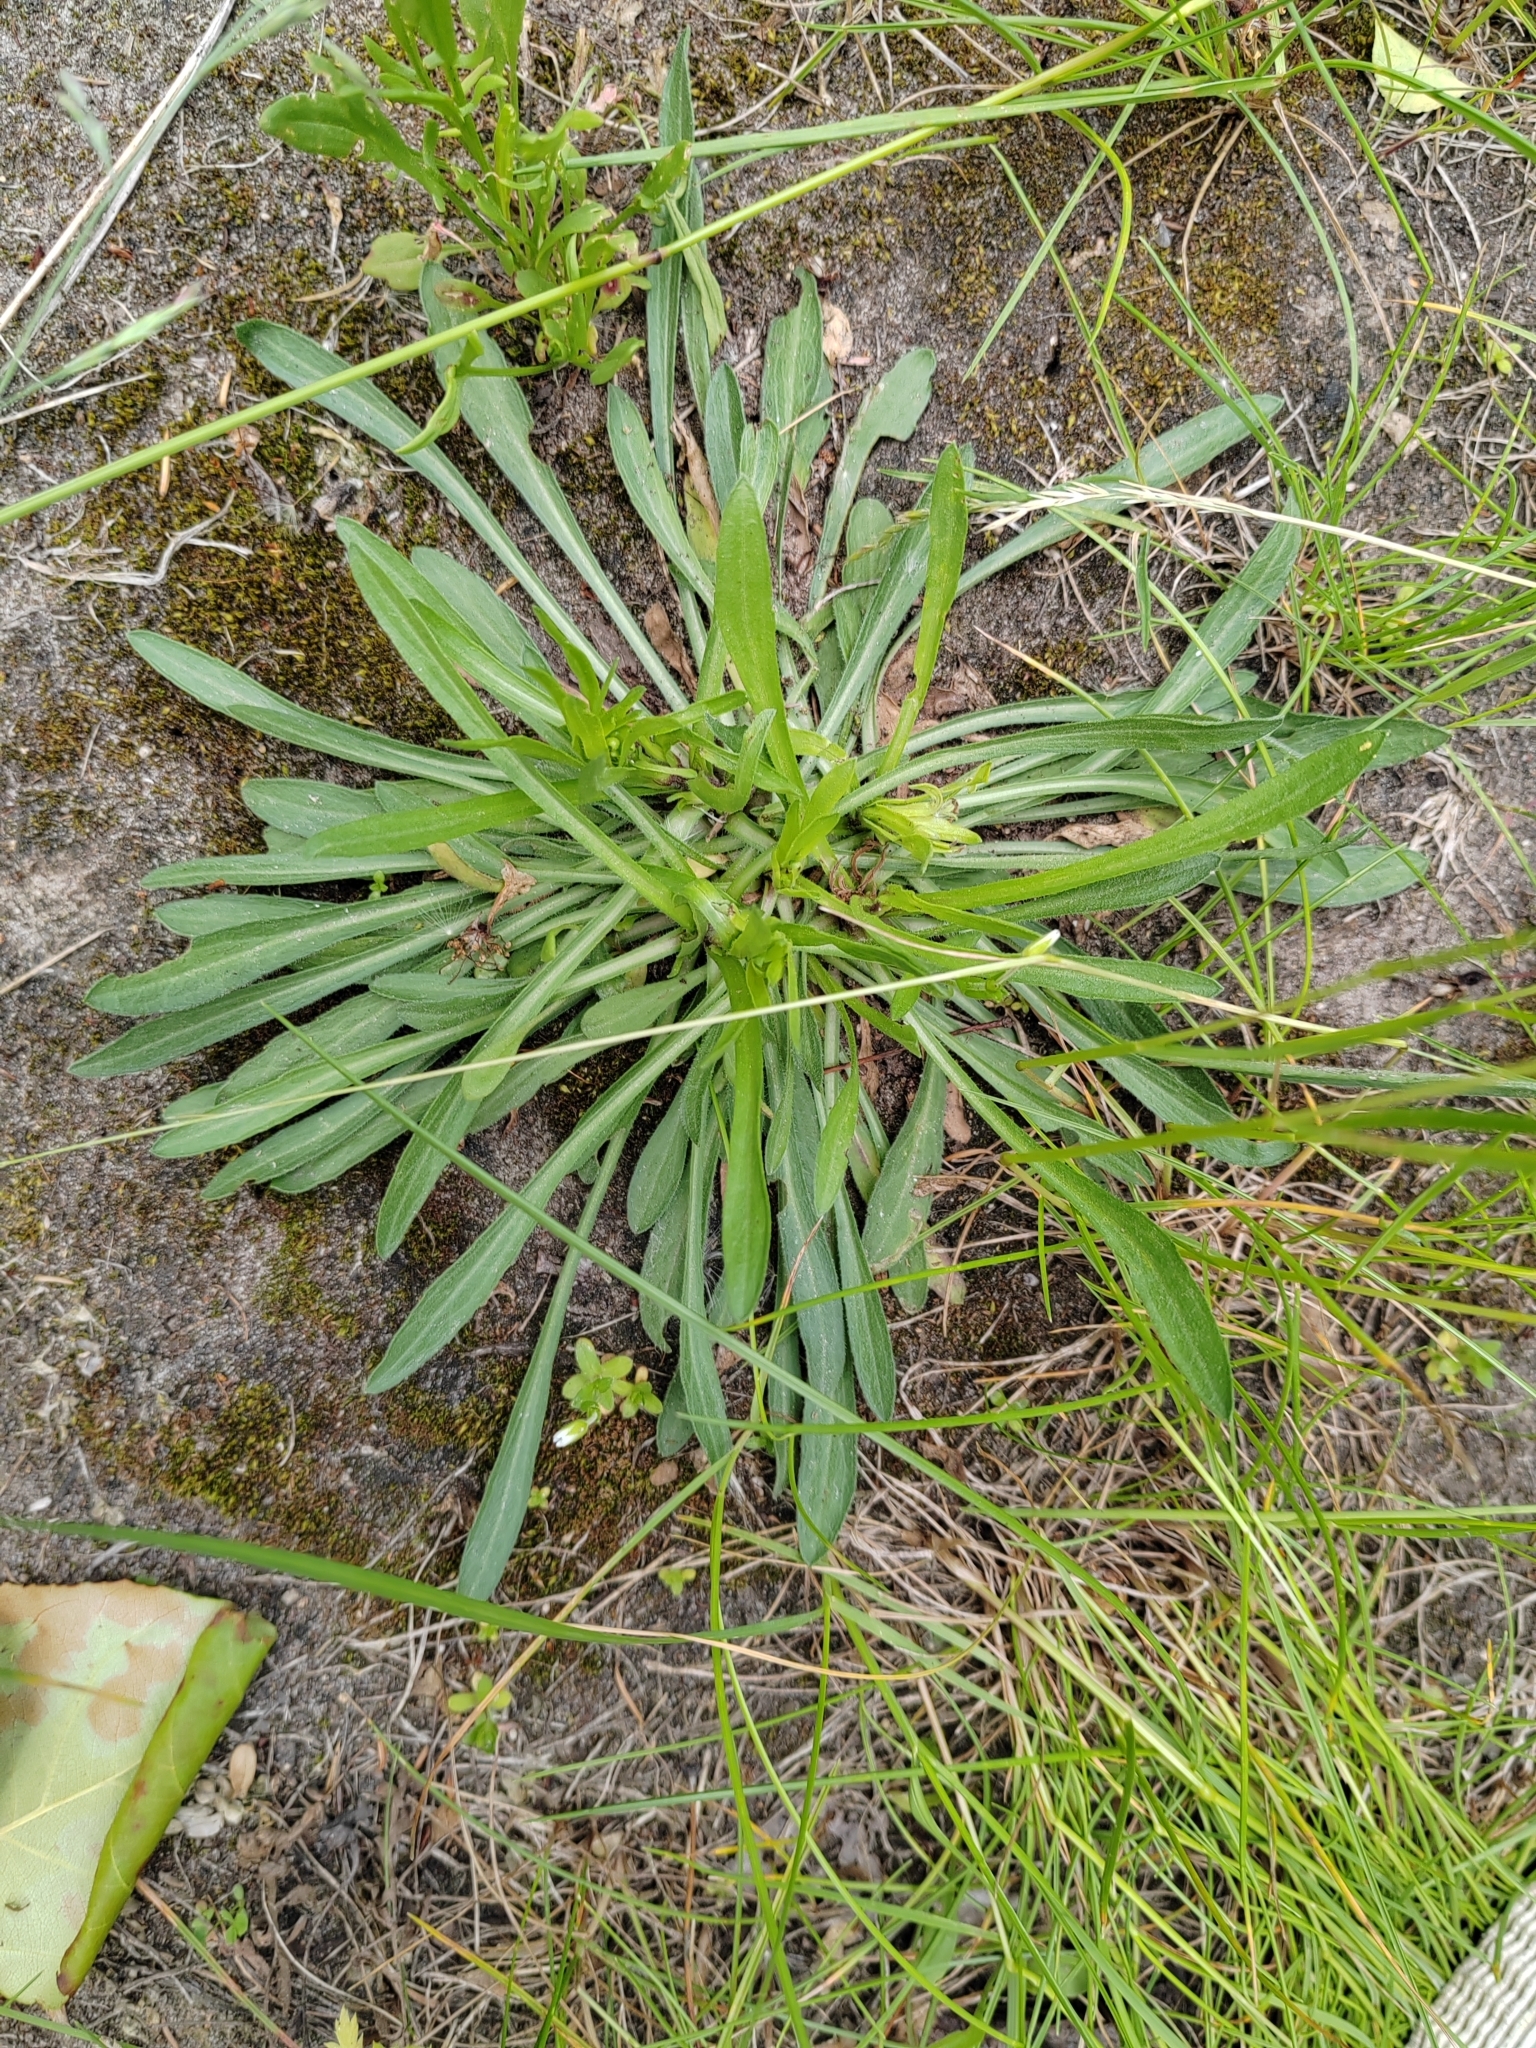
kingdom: Plantae
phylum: Tracheophyta
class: Magnoliopsida
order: Asterales
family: Asteraceae
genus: Erigeron
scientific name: Erigeron canadensis
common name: Canadian fleabane
